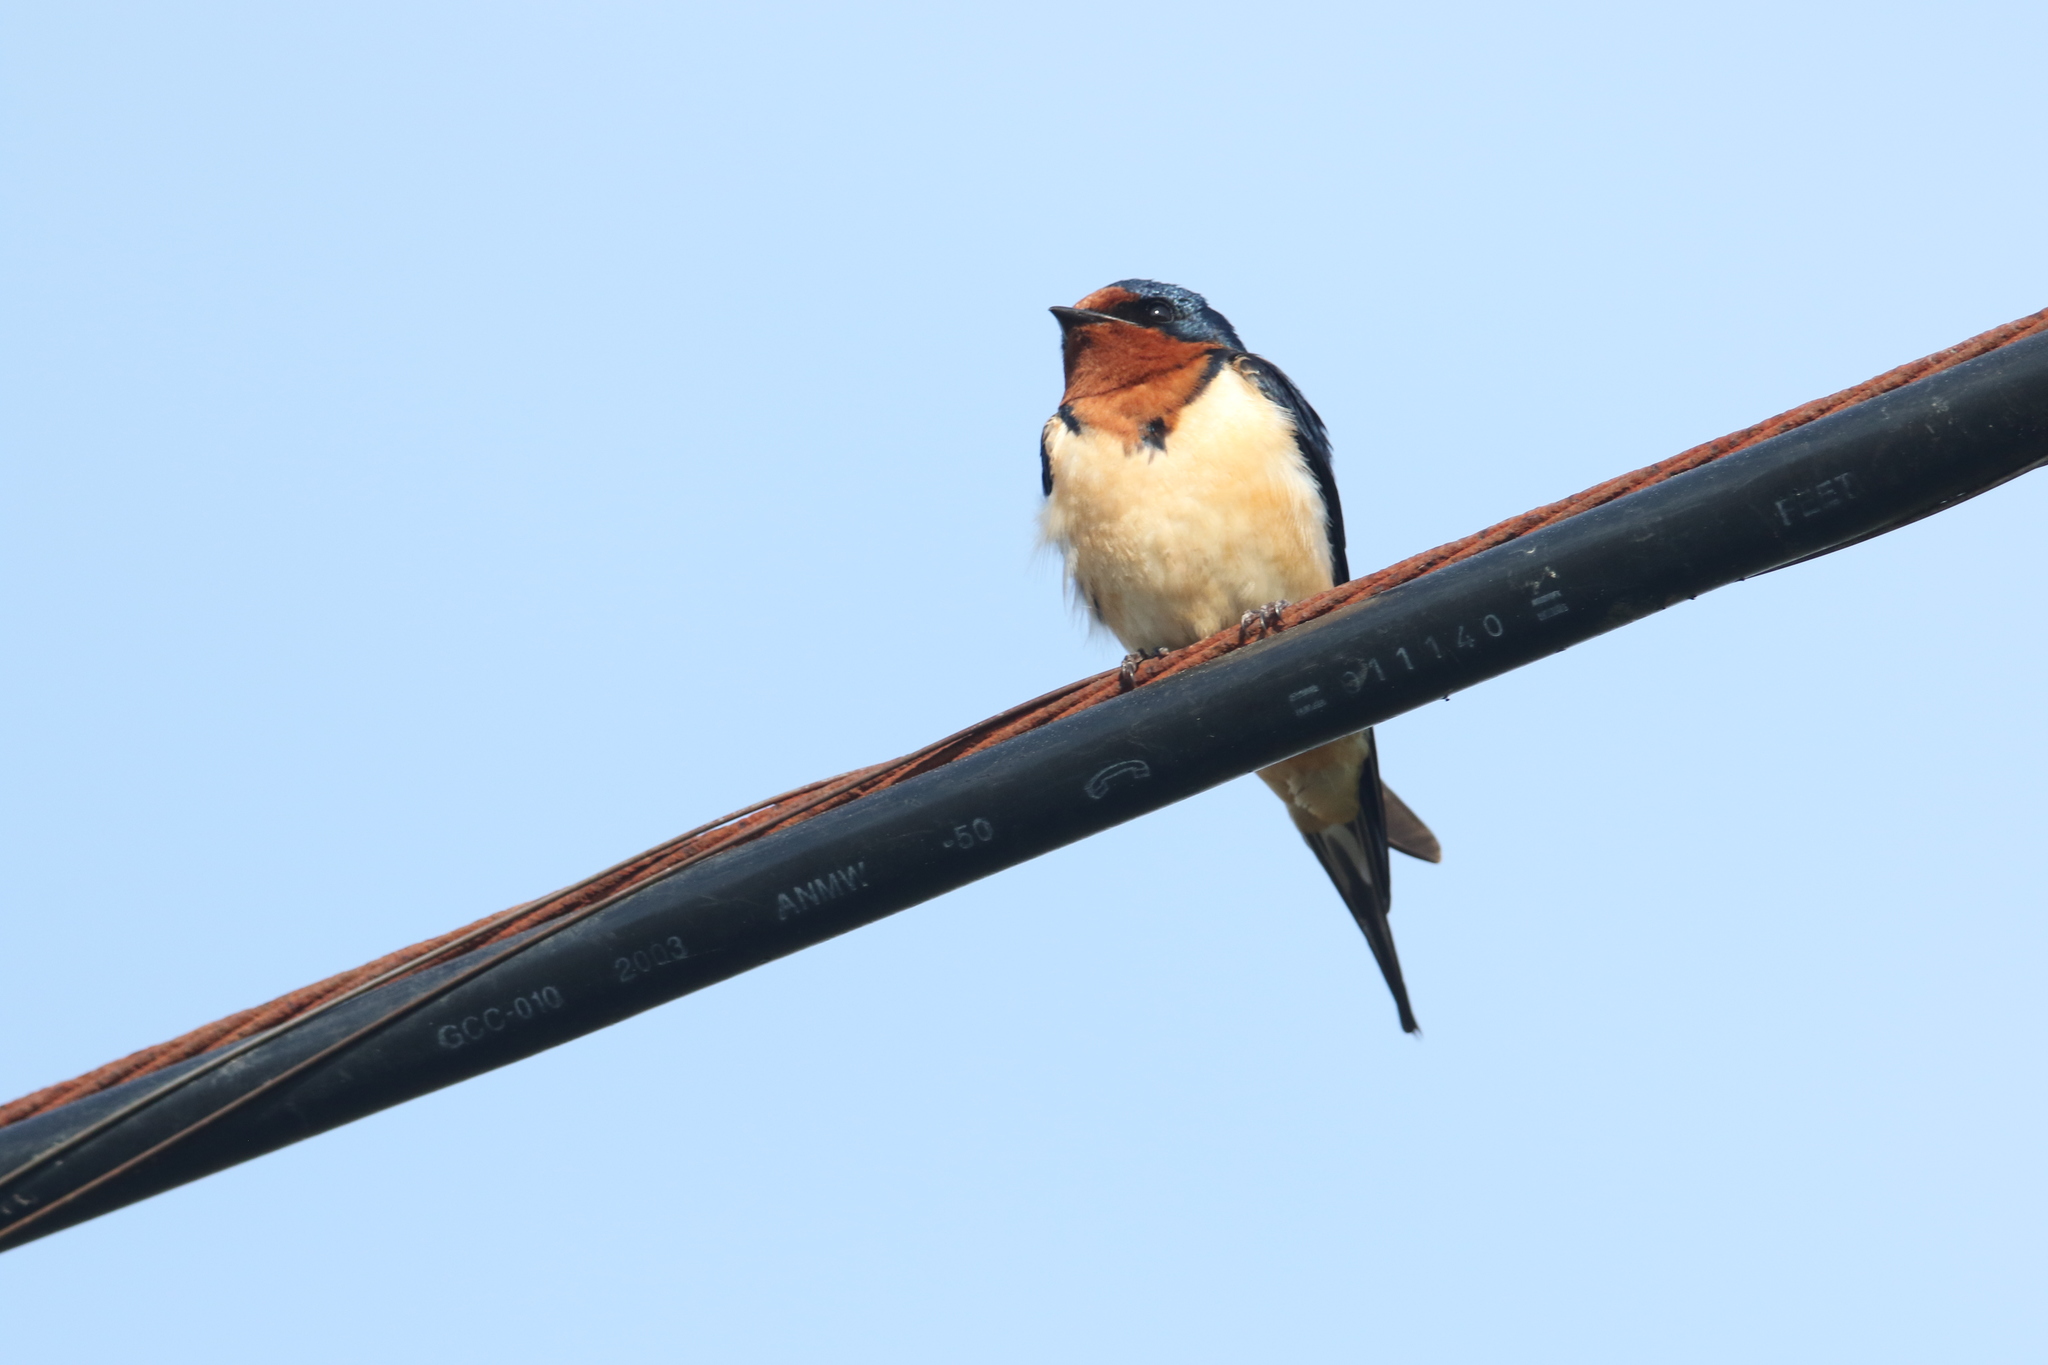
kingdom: Animalia
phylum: Chordata
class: Aves
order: Passeriformes
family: Hirundinidae
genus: Hirundo
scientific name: Hirundo rustica
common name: Barn swallow
